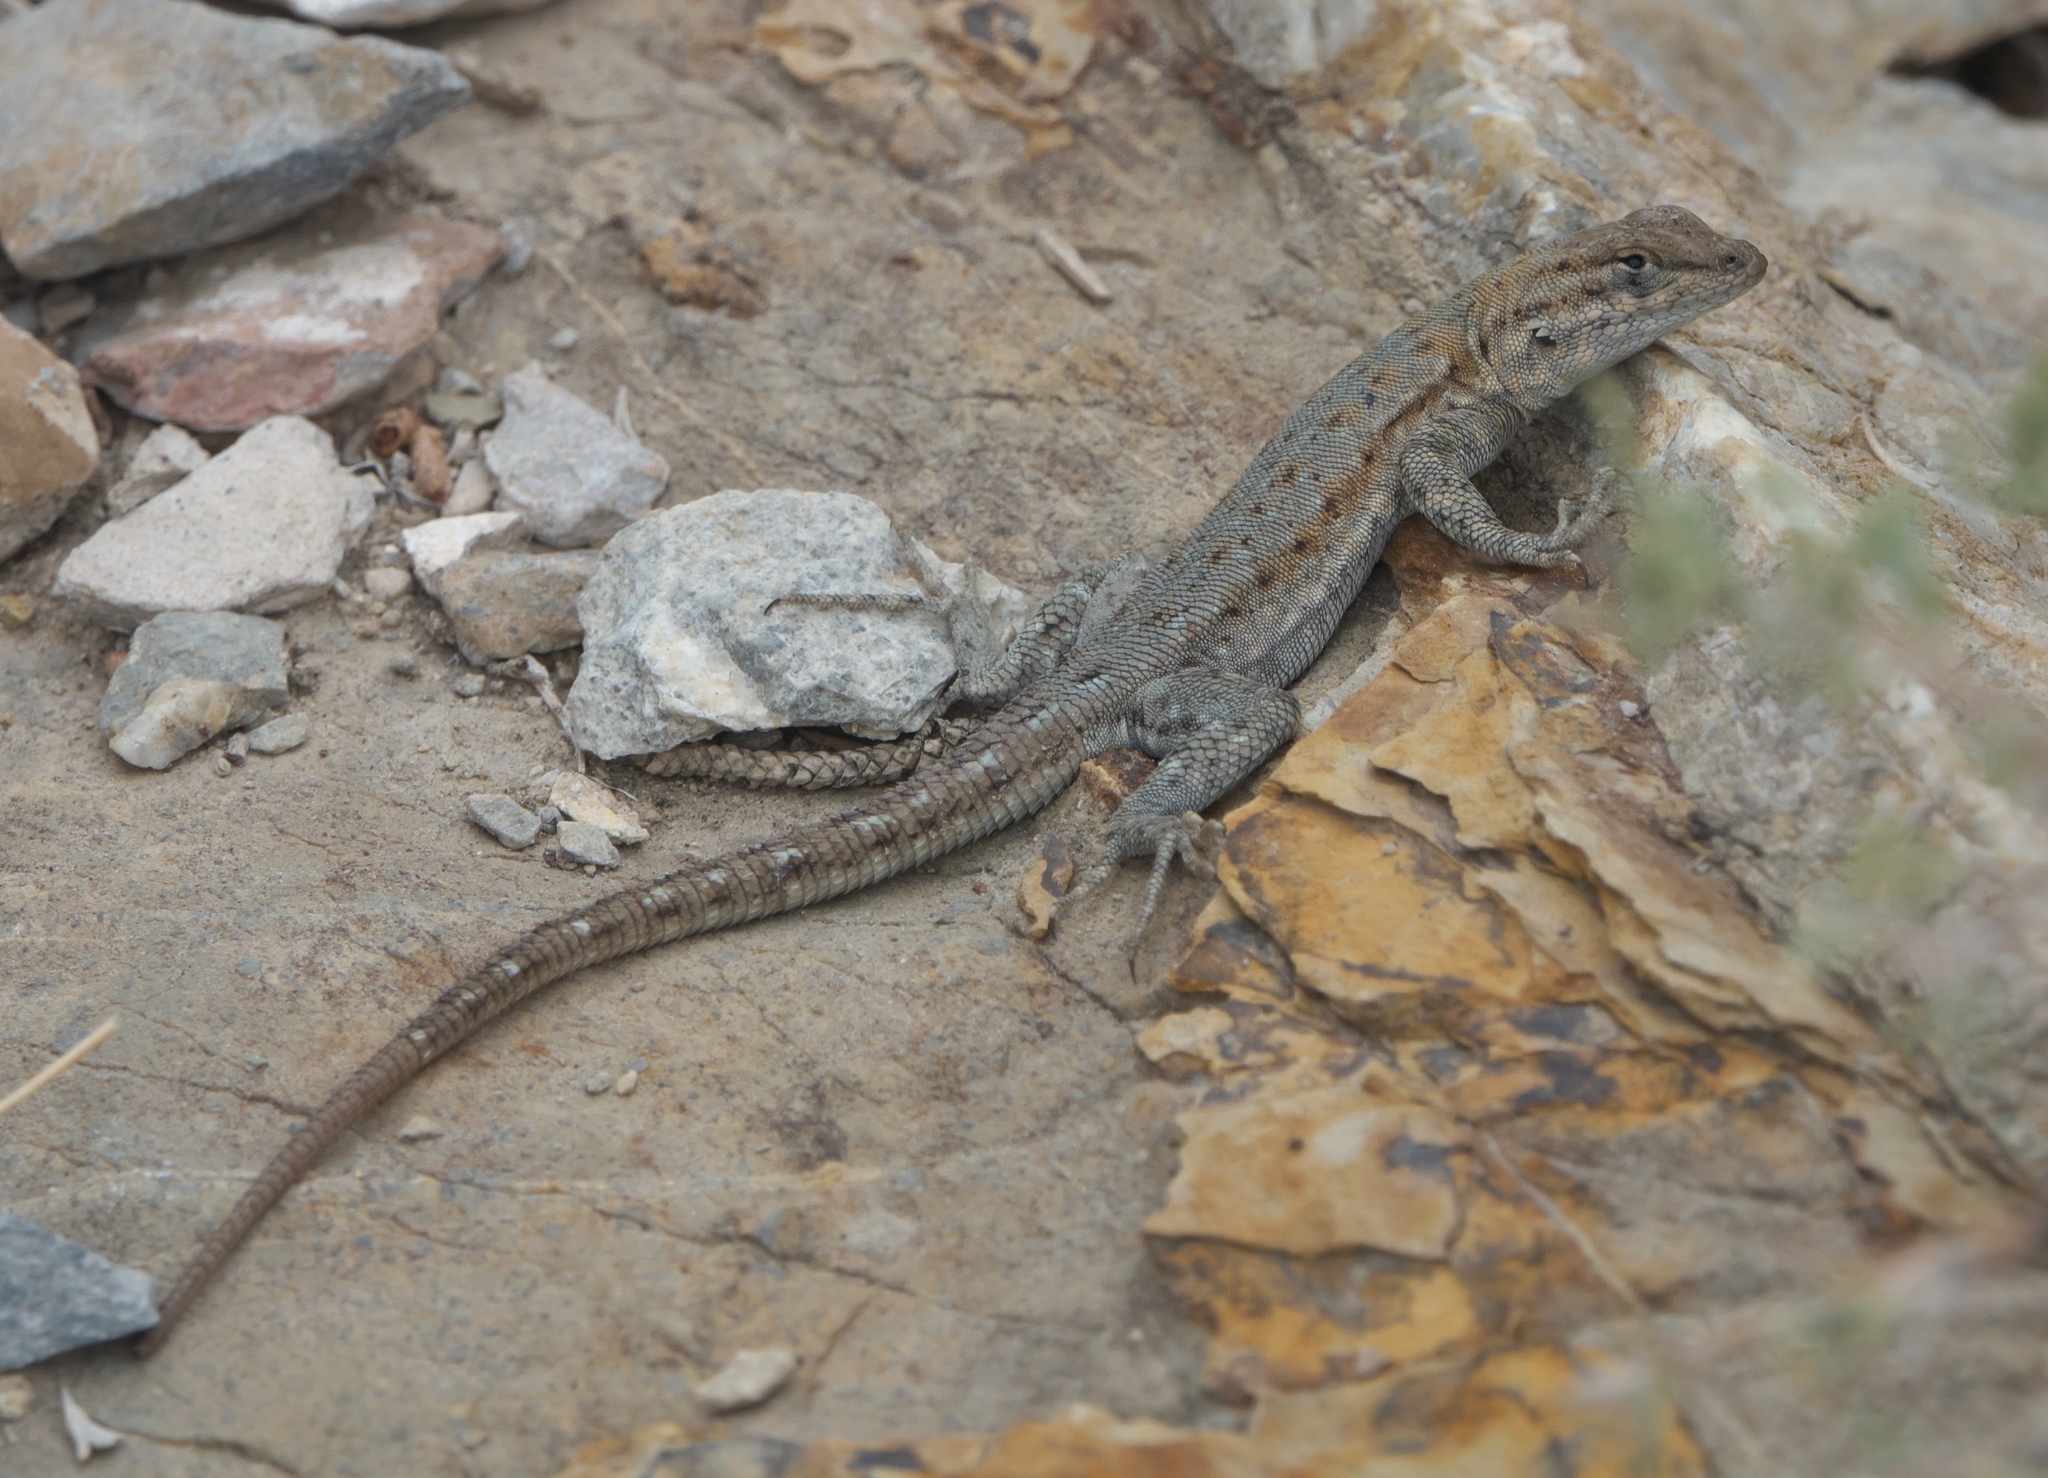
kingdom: Animalia
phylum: Chordata
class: Squamata
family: Phrynosomatidae
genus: Uta
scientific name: Uta stansburiana
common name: Side-blotched lizard
